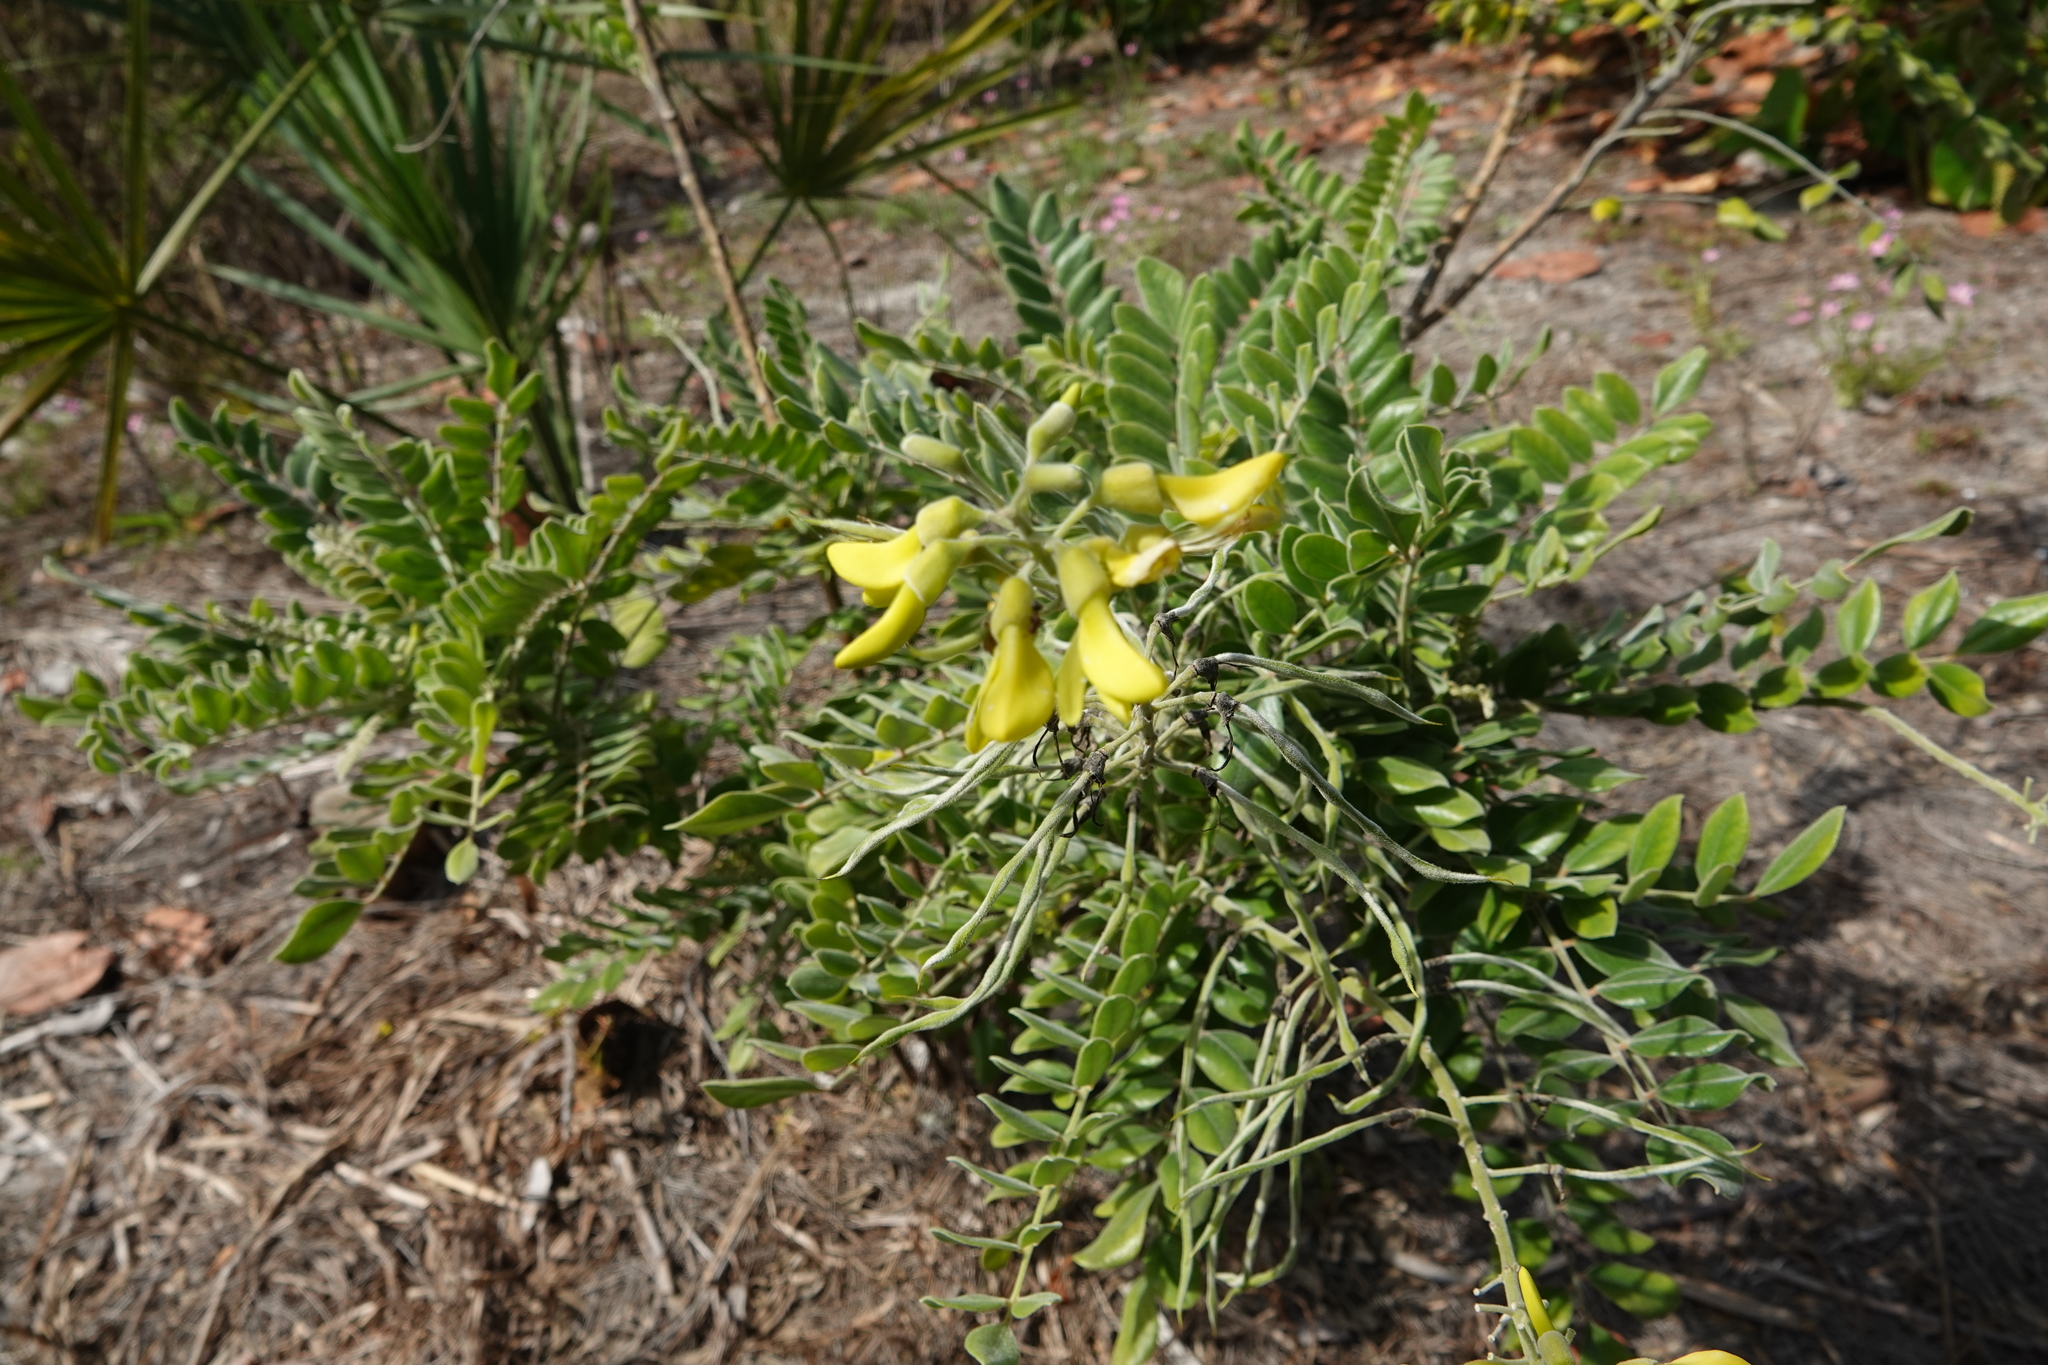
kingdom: Plantae
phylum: Tracheophyta
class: Magnoliopsida
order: Fabales
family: Fabaceae
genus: Sophora
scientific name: Sophora tomentosa
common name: Yellow necklacepod
